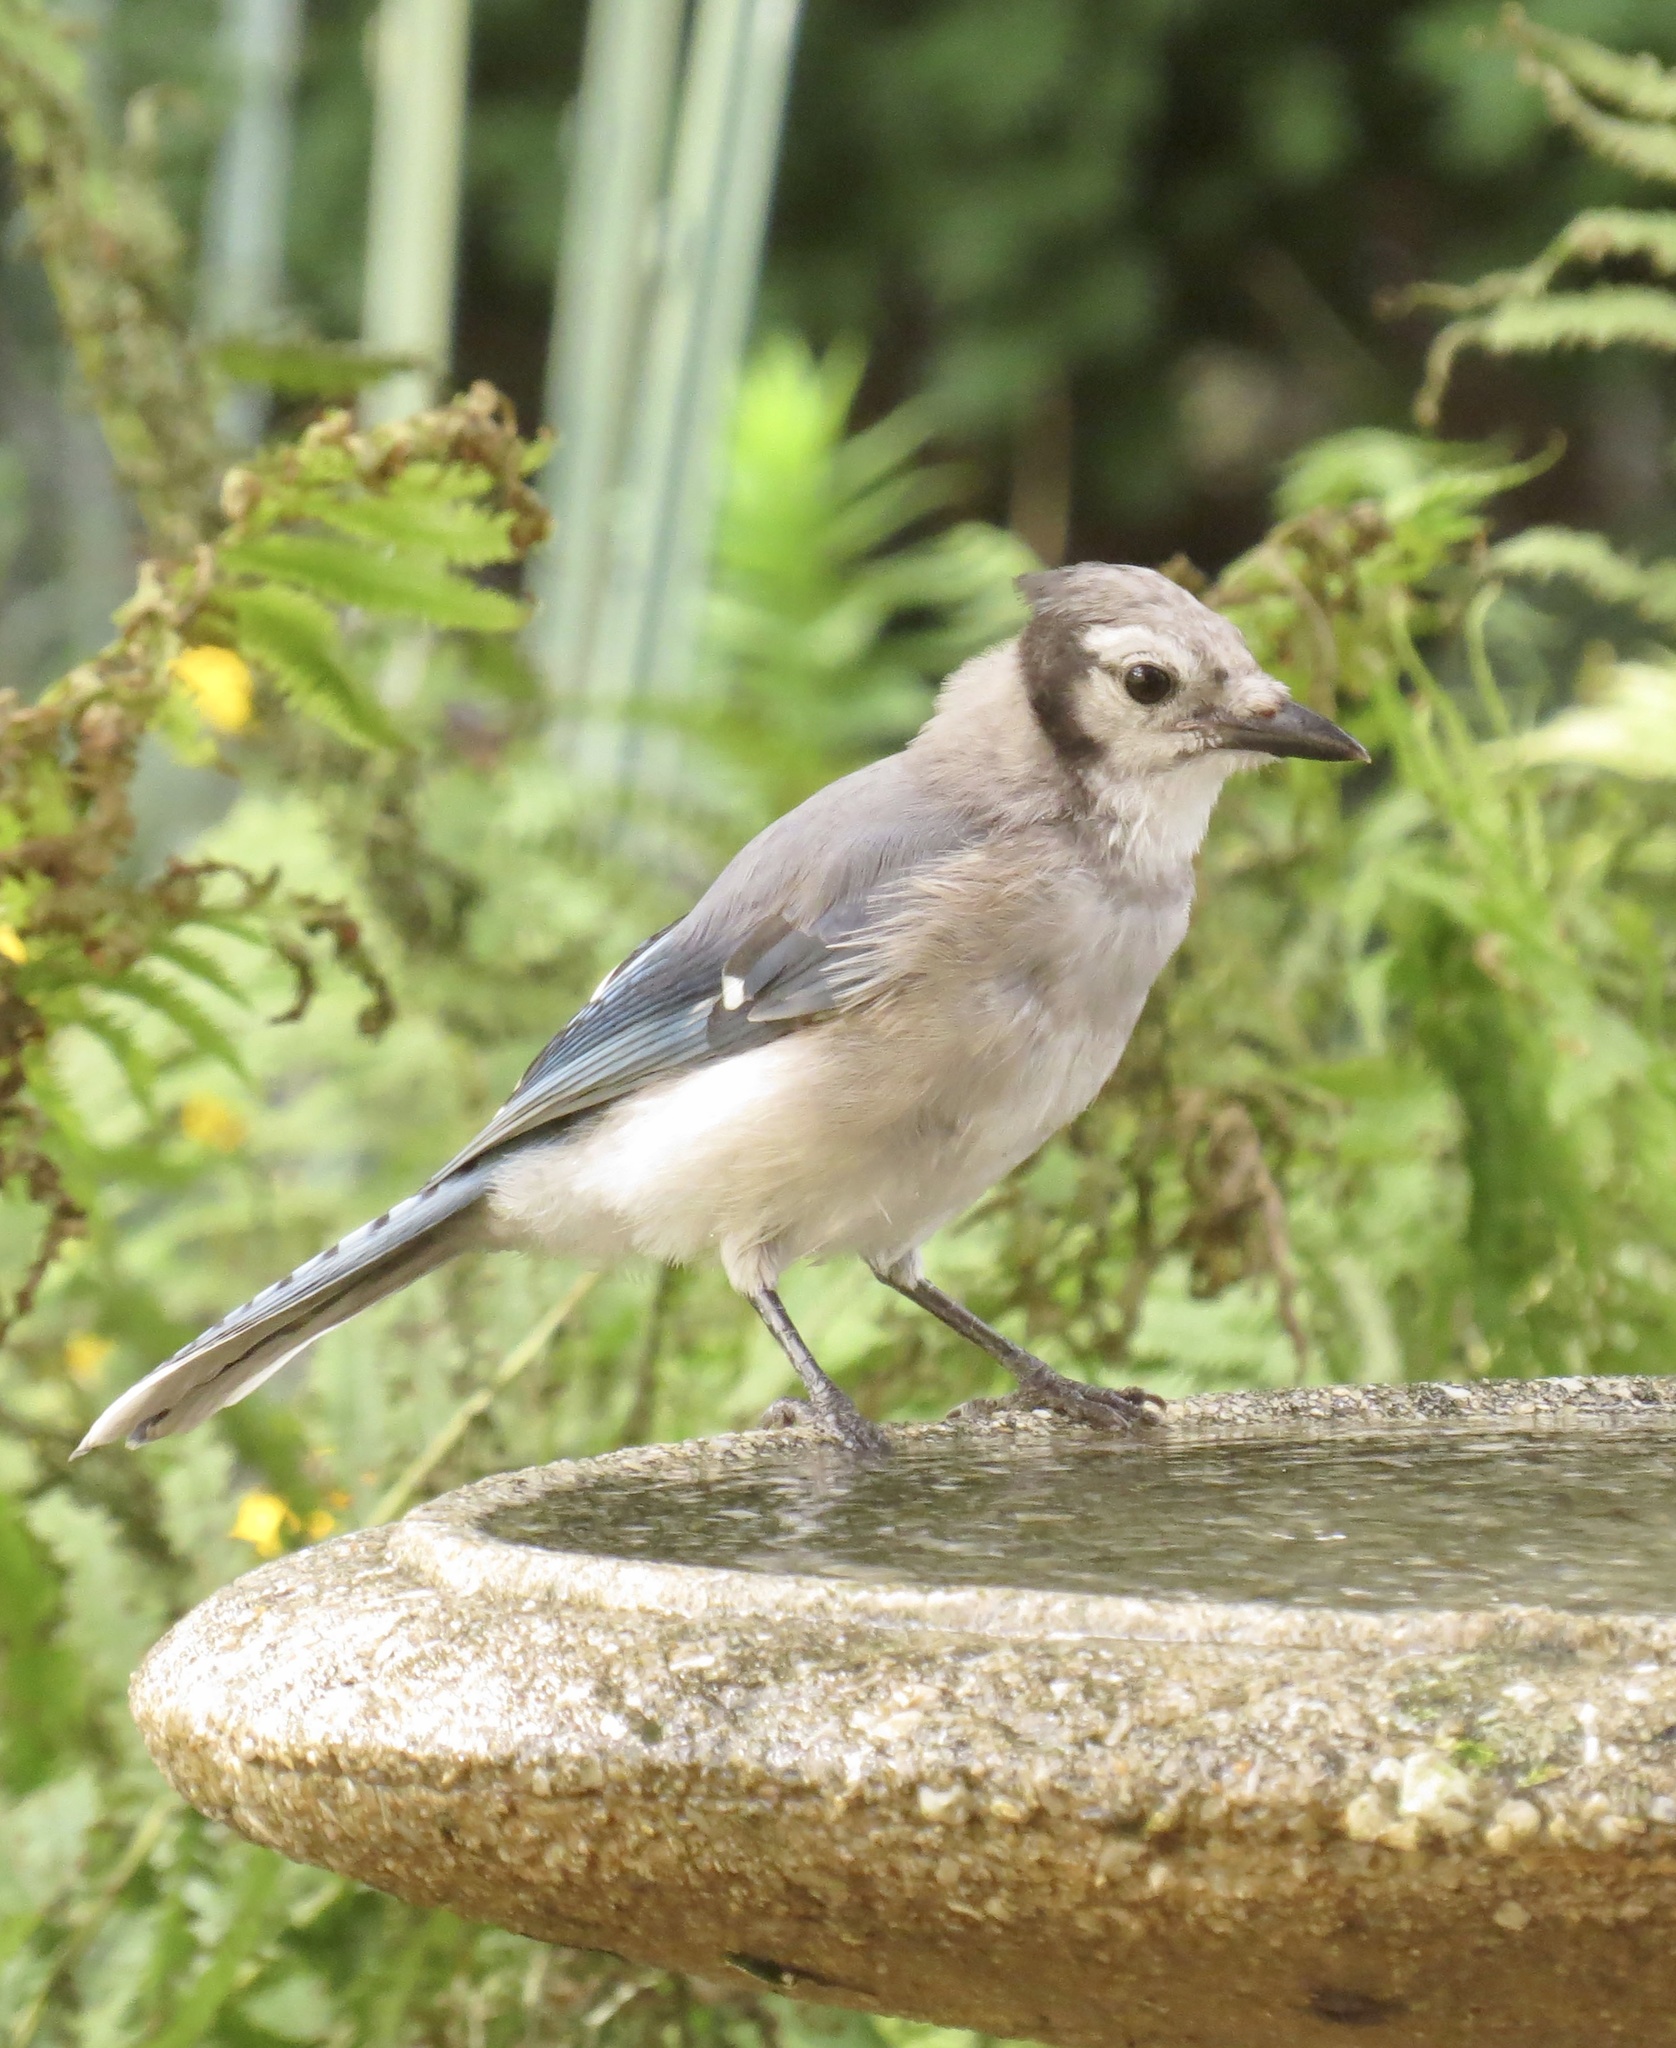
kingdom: Animalia
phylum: Chordata
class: Aves
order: Passeriformes
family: Corvidae
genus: Cyanocitta
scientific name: Cyanocitta cristata
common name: Blue jay
